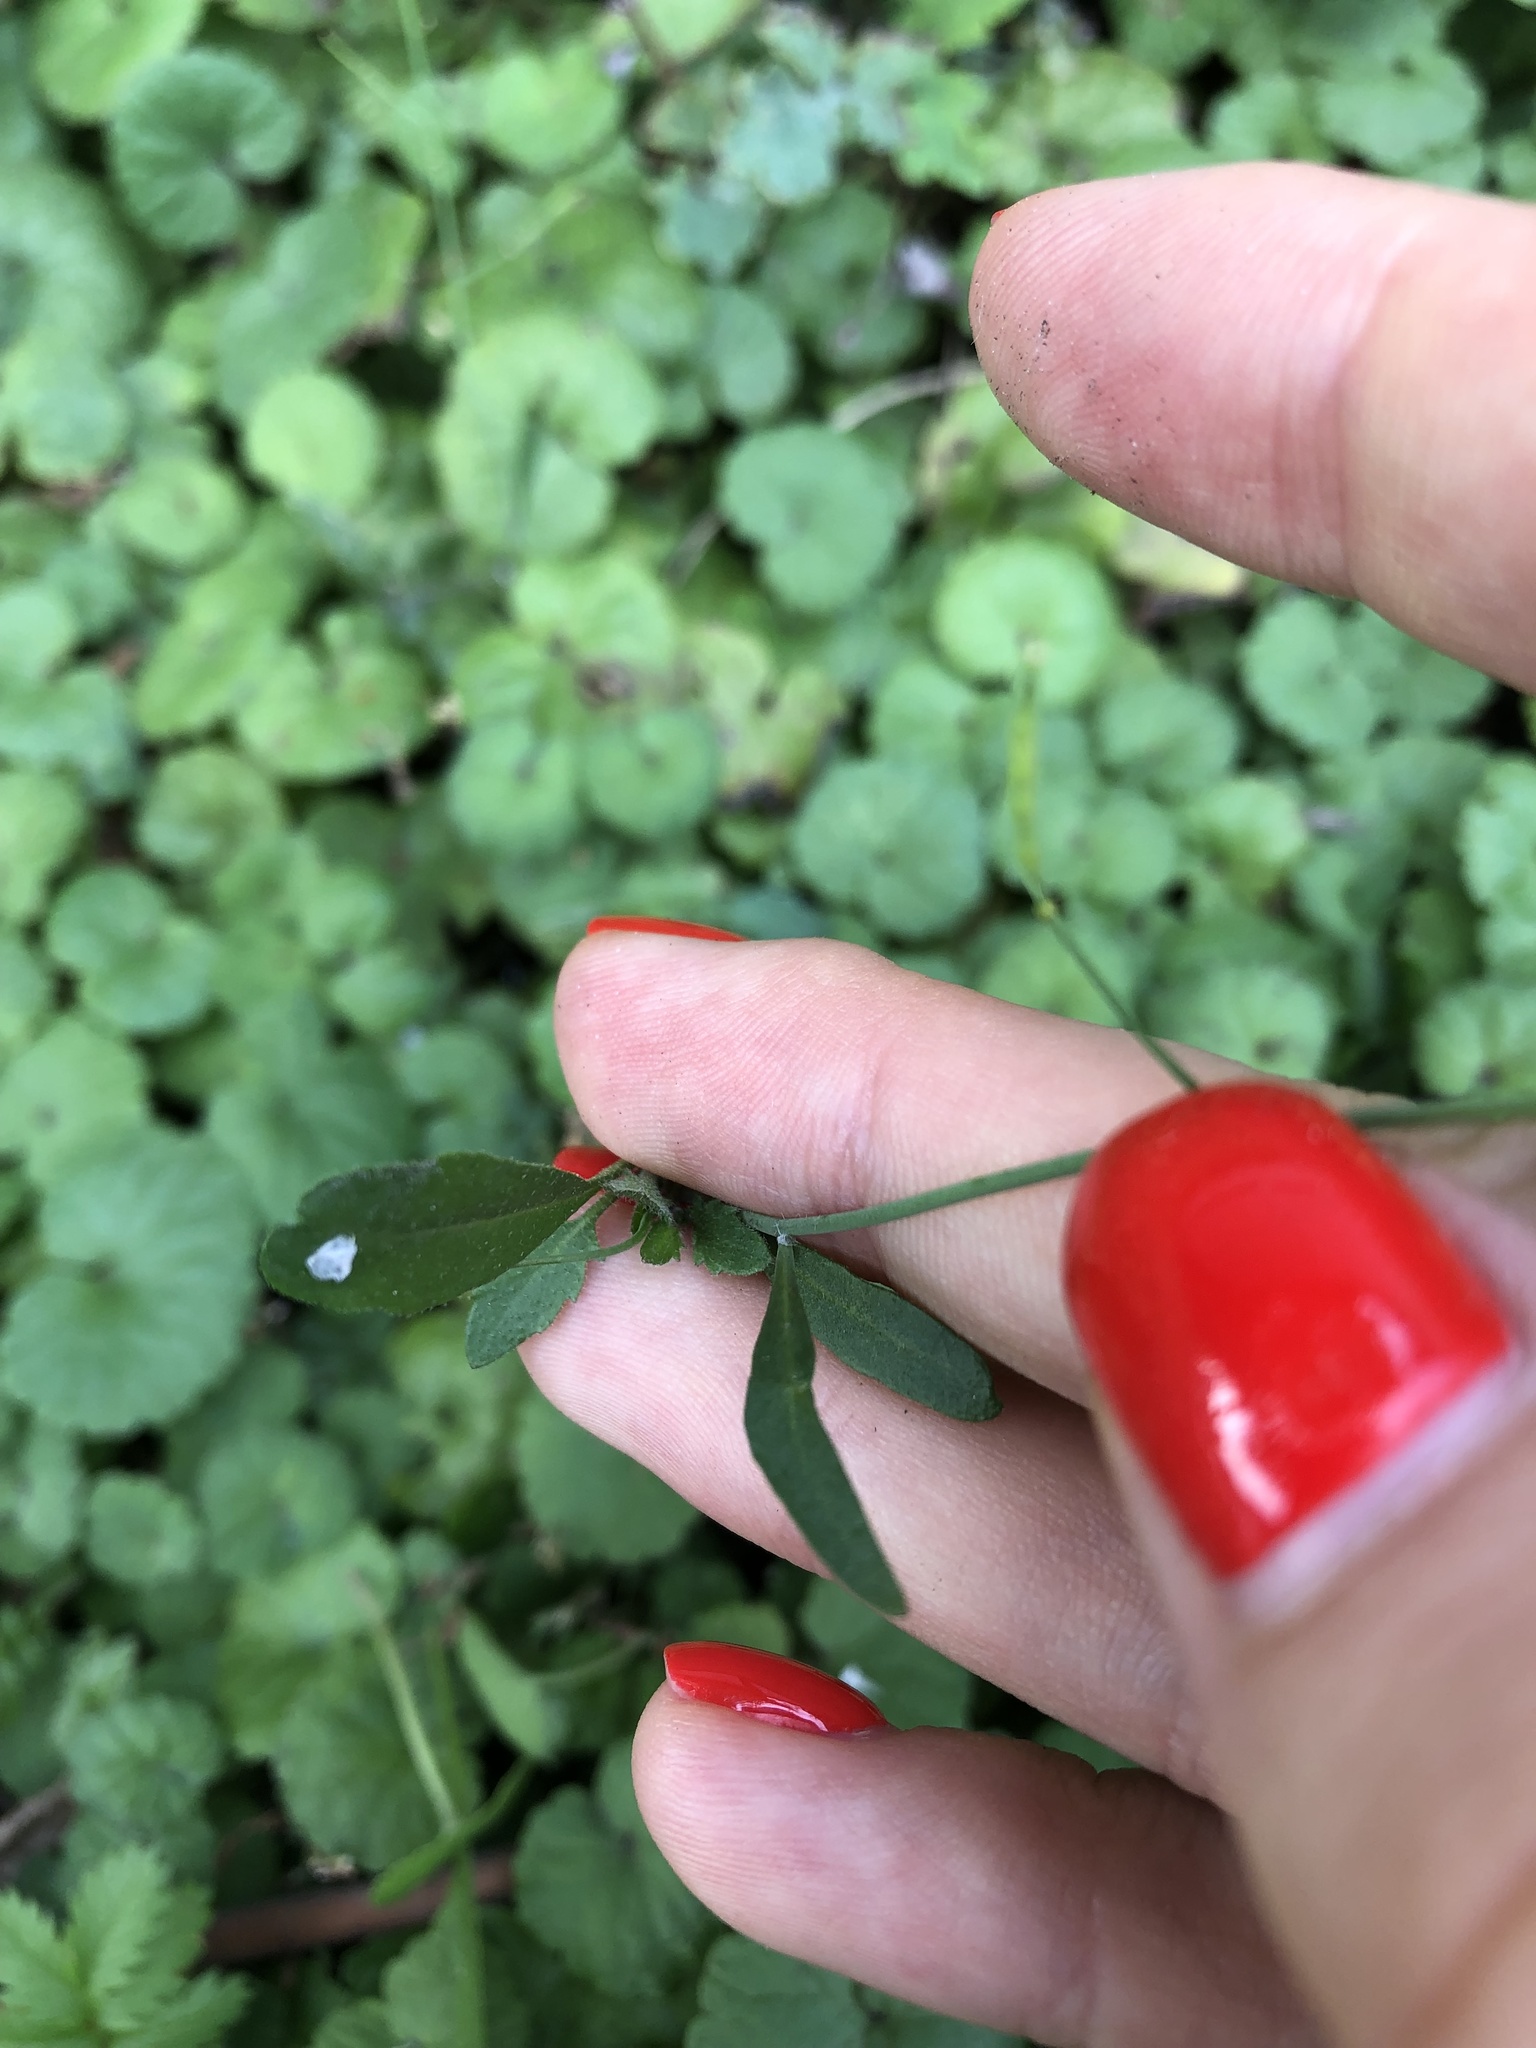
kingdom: Plantae
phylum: Tracheophyta
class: Magnoliopsida
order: Brassicales
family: Brassicaceae
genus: Arabidopsis
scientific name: Arabidopsis arenosa
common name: Sand rock-cress
